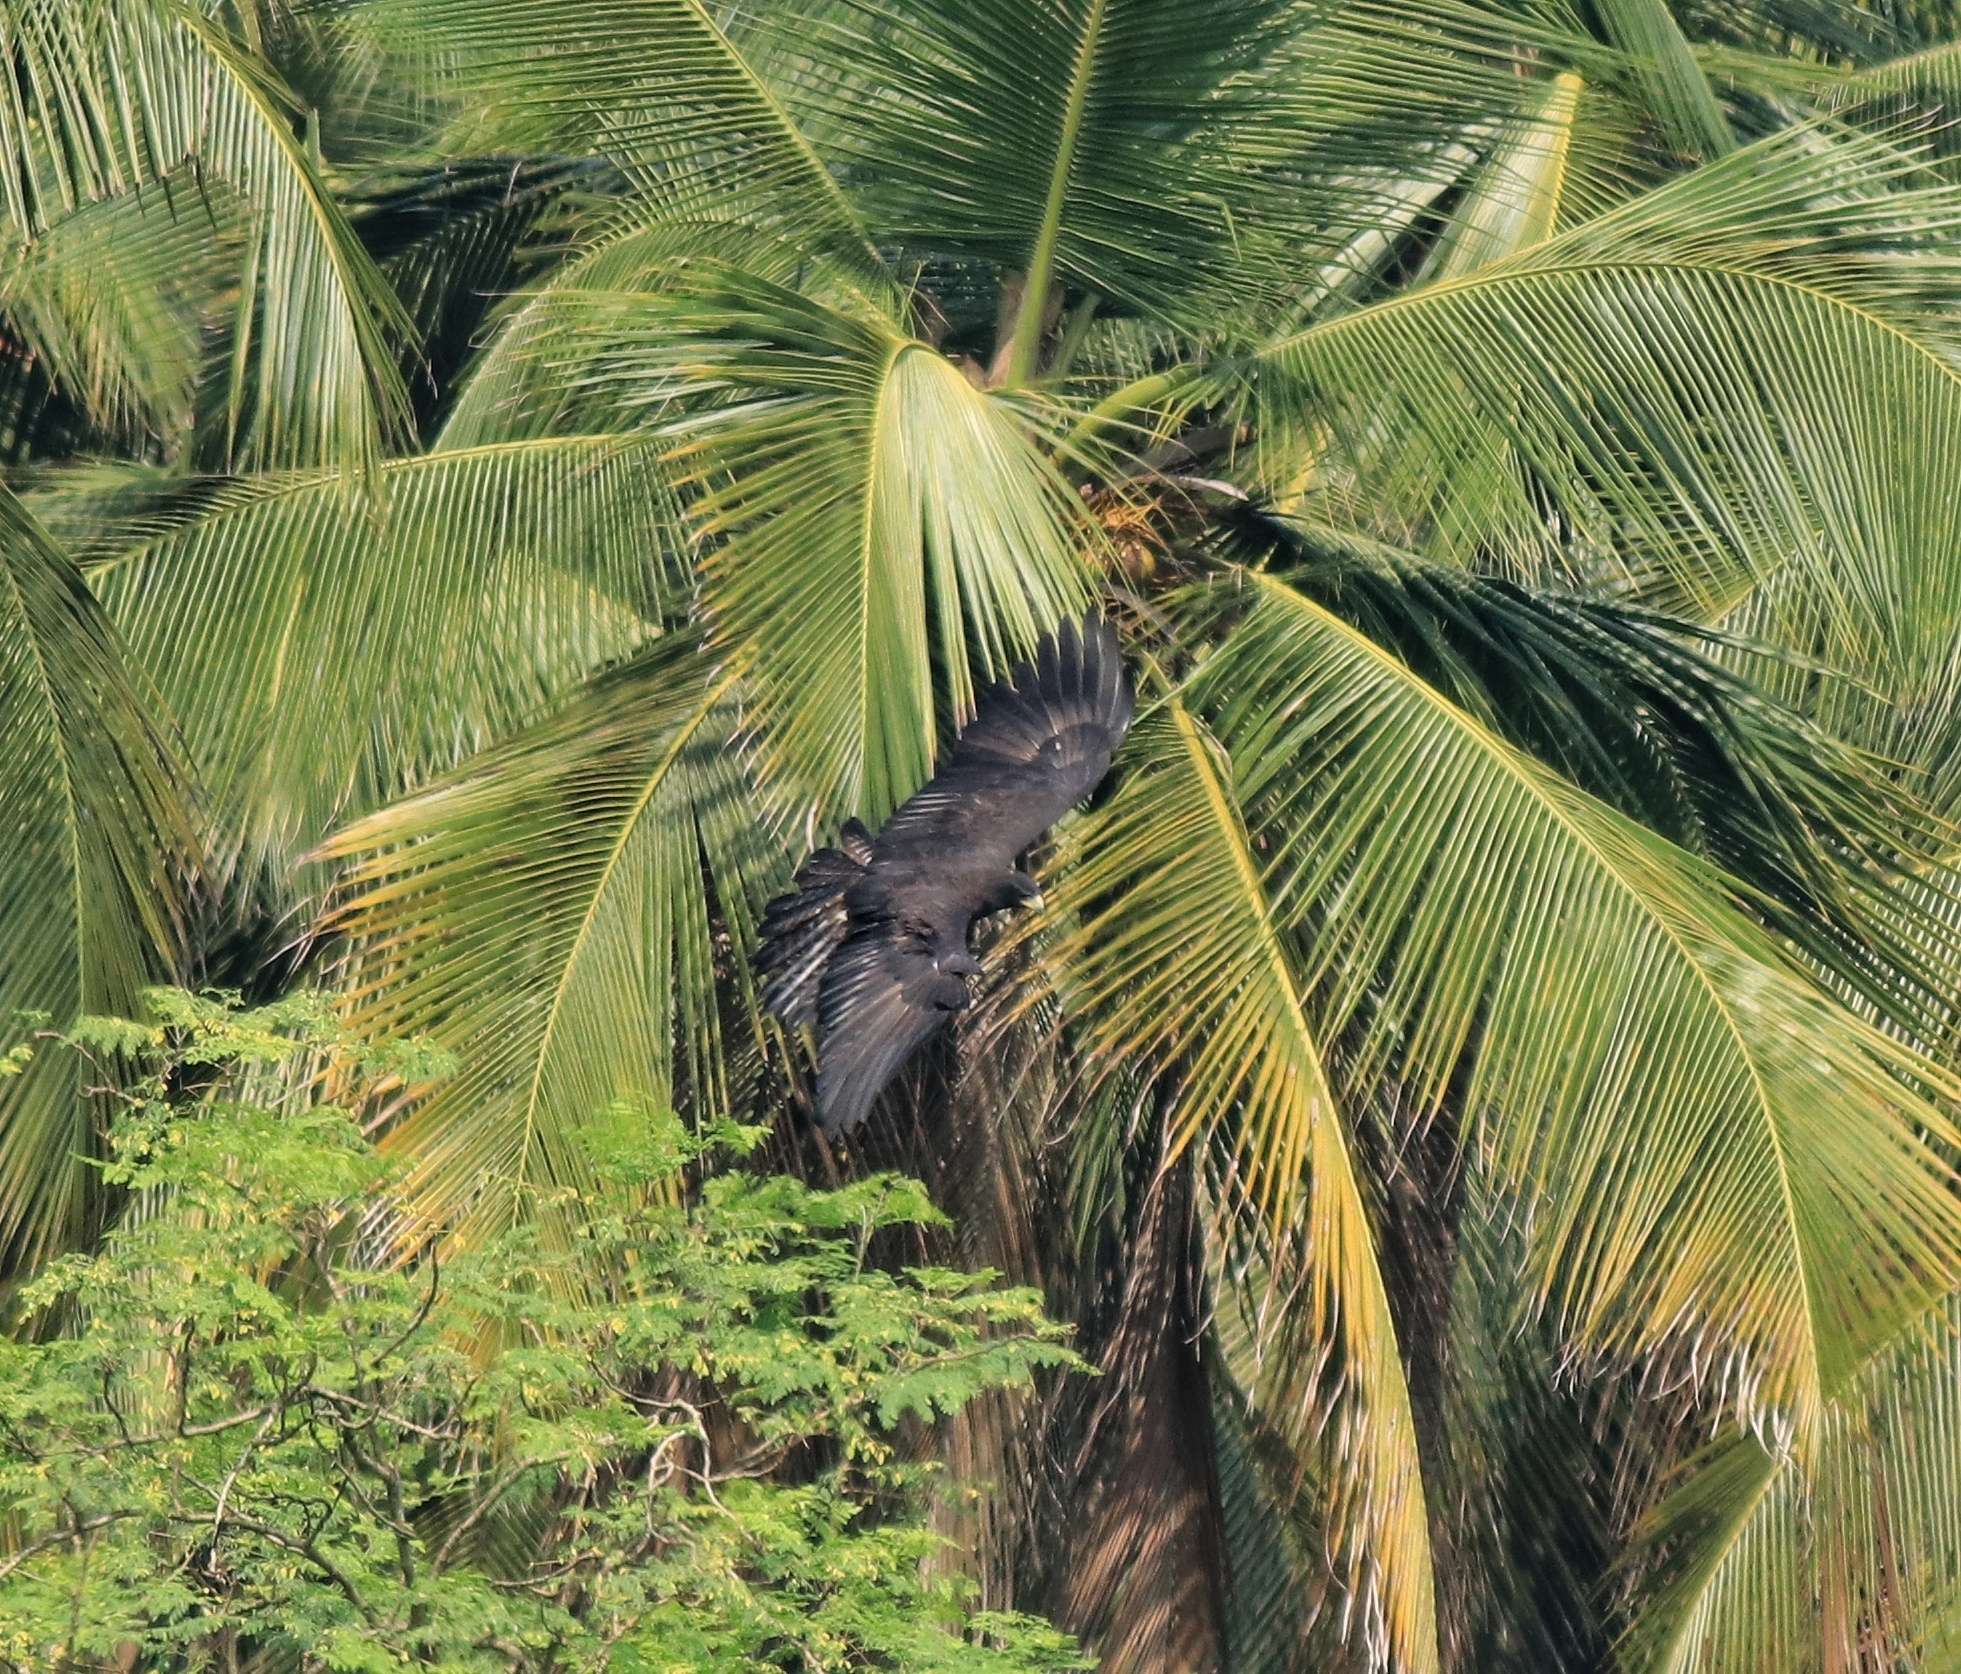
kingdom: Animalia
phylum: Chordata
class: Aves
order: Accipitriformes
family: Accipitridae
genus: Ictinaetus
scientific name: Ictinaetus malayensis
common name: Black eagle
